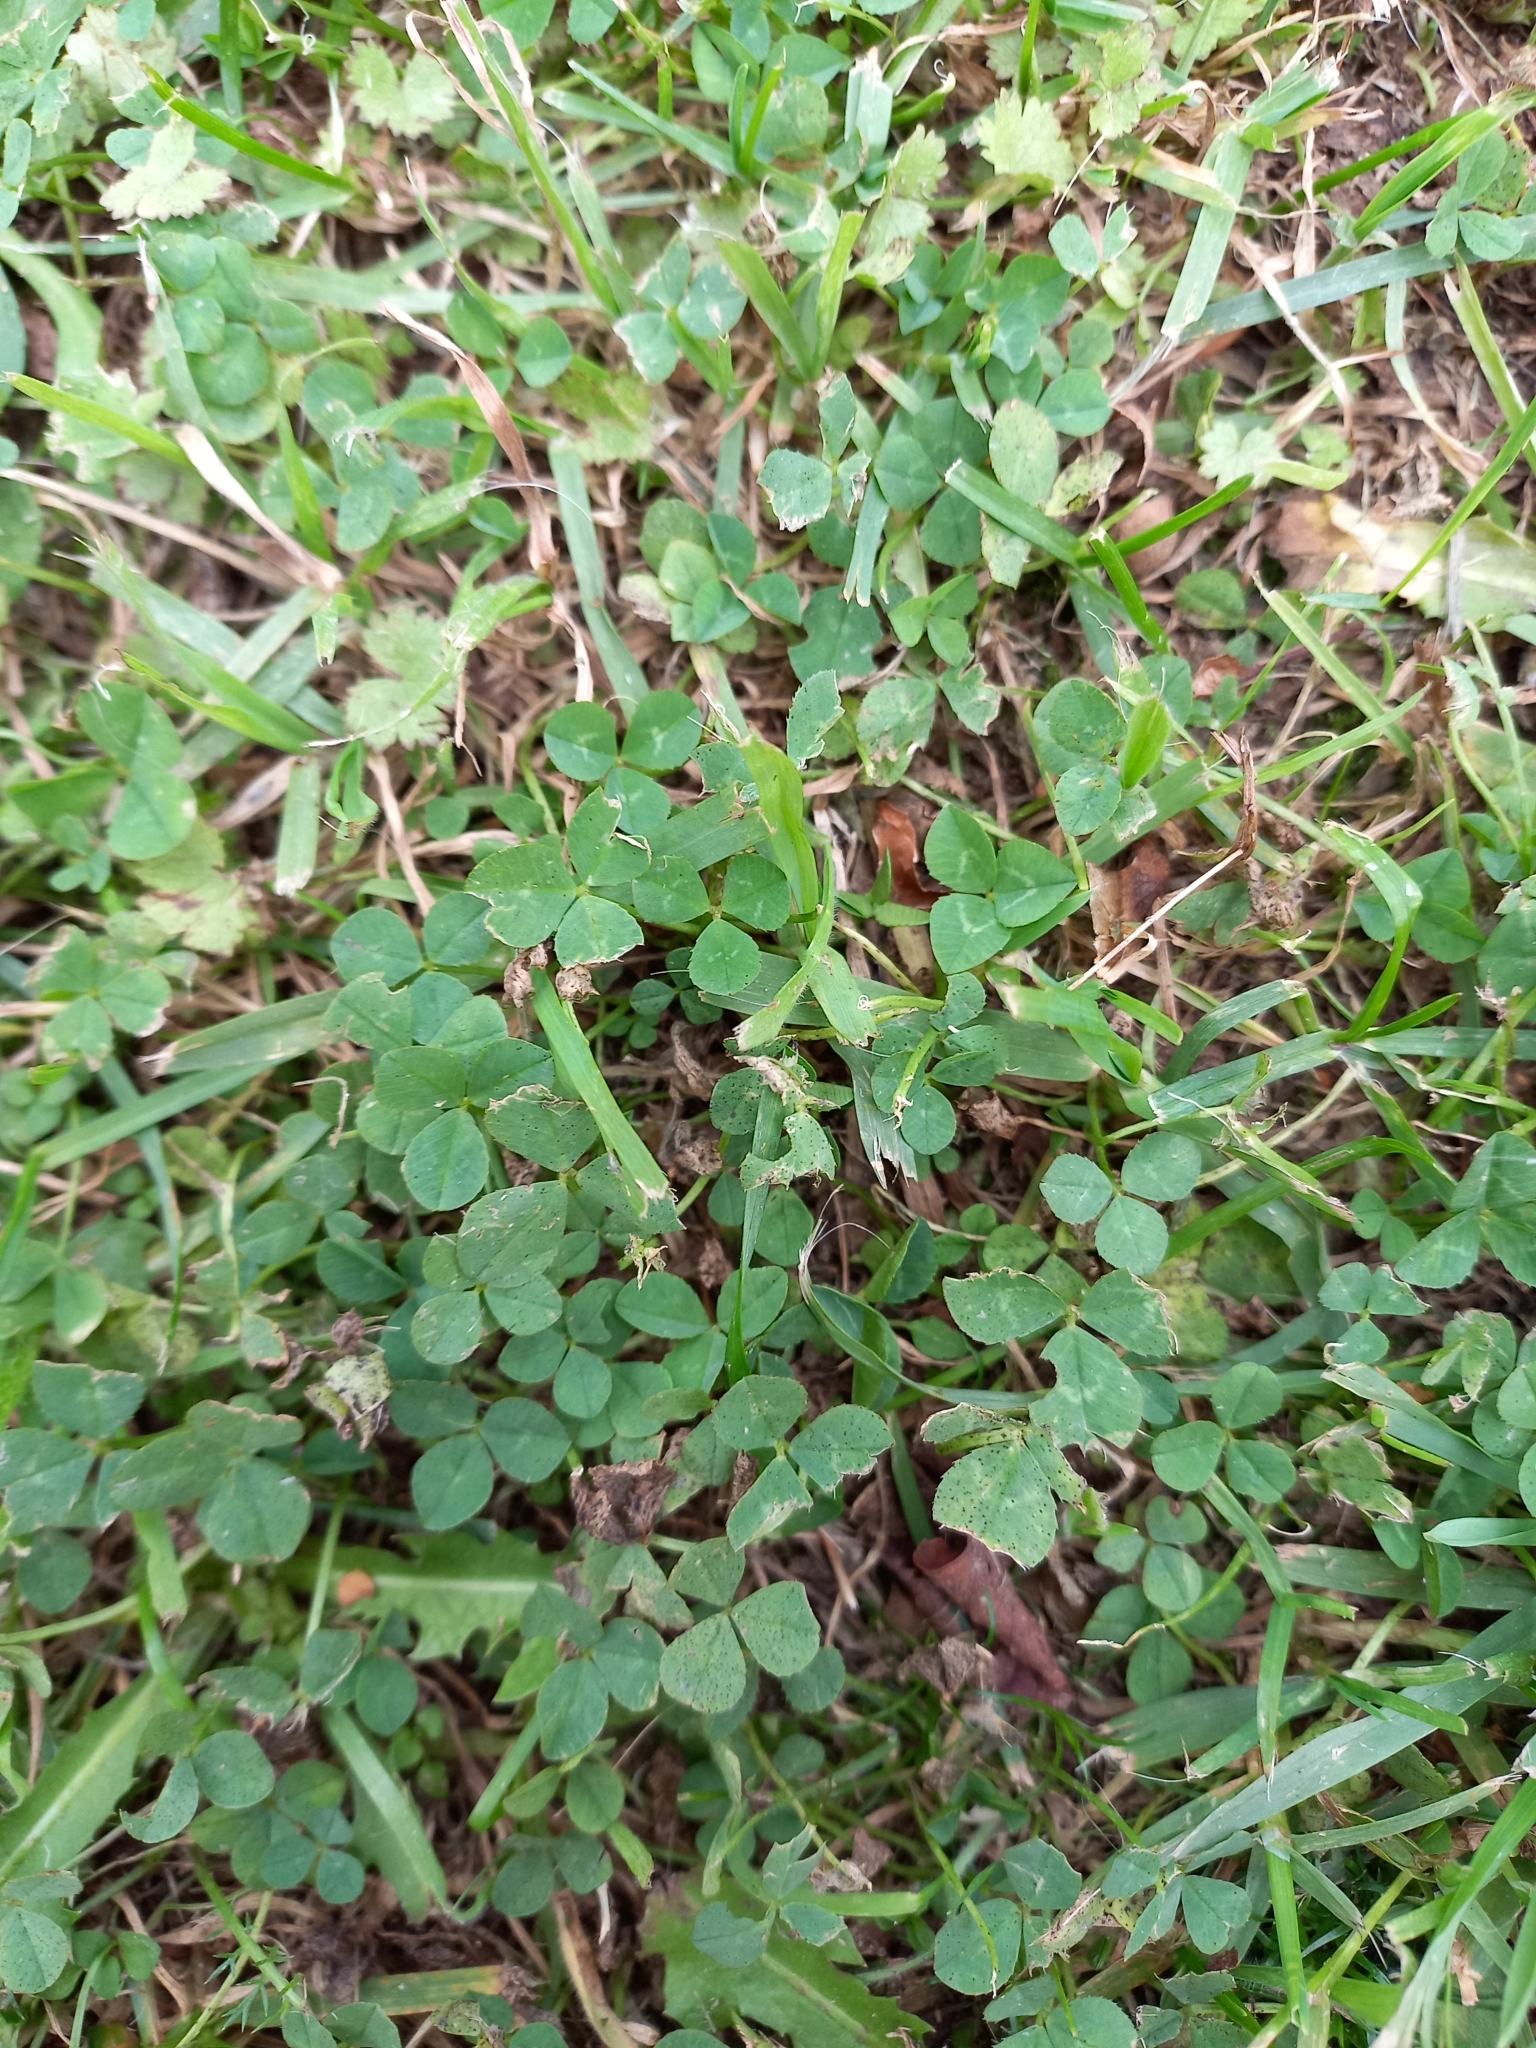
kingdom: Plantae
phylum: Tracheophyta
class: Magnoliopsida
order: Fabales
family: Fabaceae
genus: Trifolium
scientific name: Trifolium repens
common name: White clover
